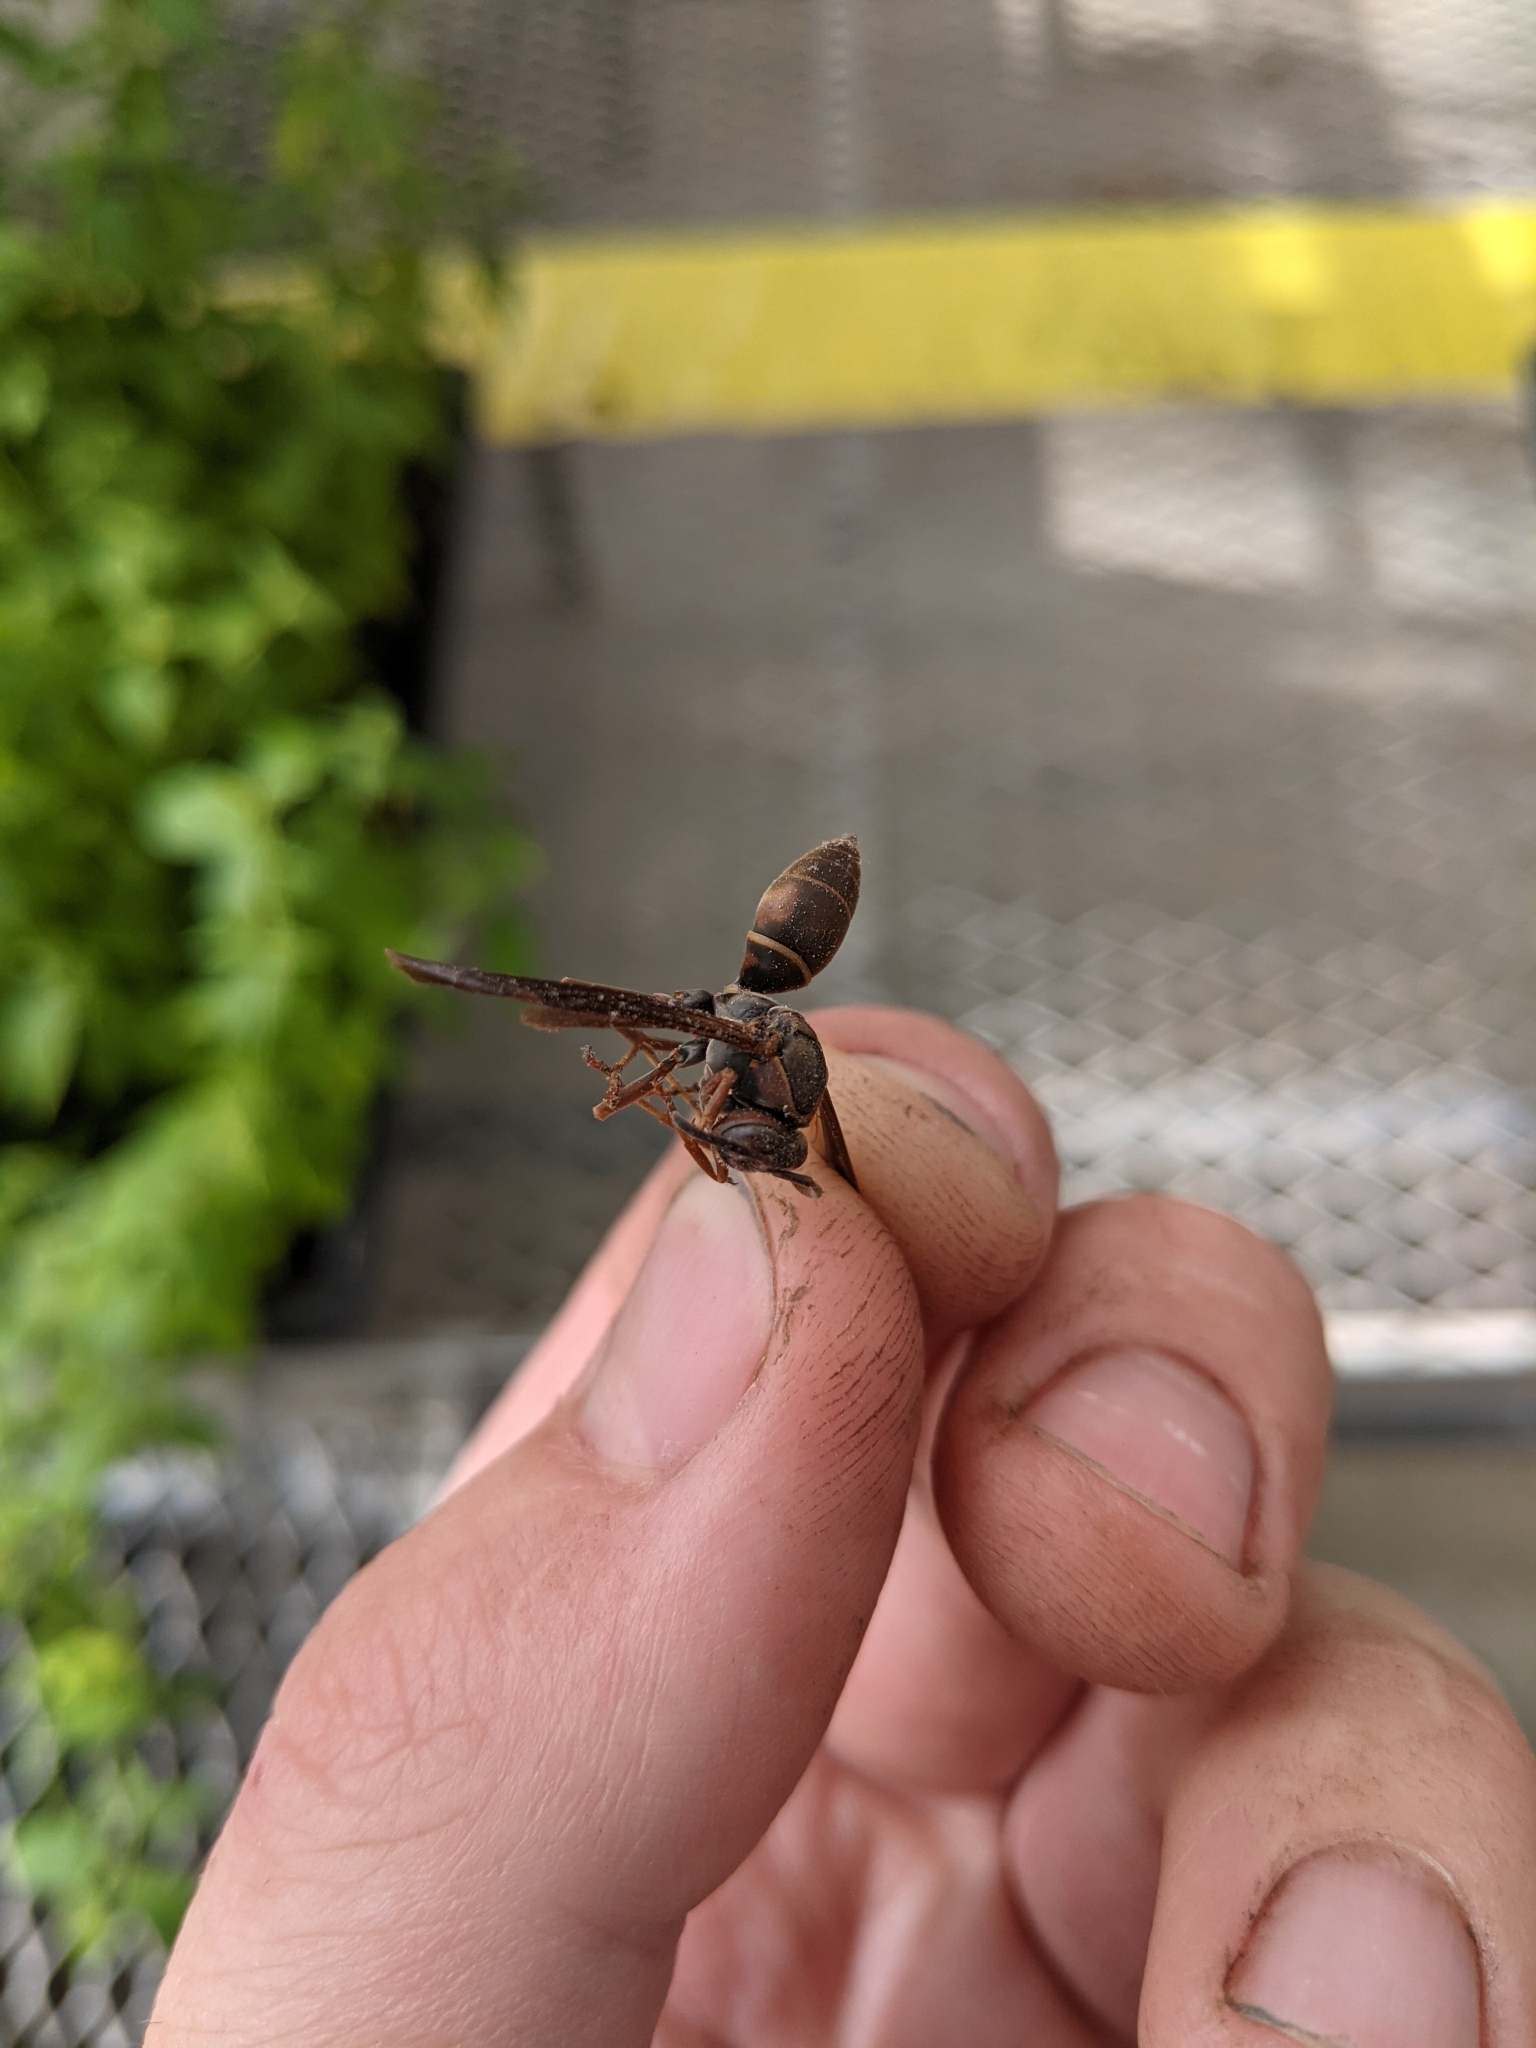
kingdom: Animalia
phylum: Arthropoda
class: Insecta
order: Hymenoptera
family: Eumenidae
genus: Polistes
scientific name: Polistes fuscatus
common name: Dark paper wasp
